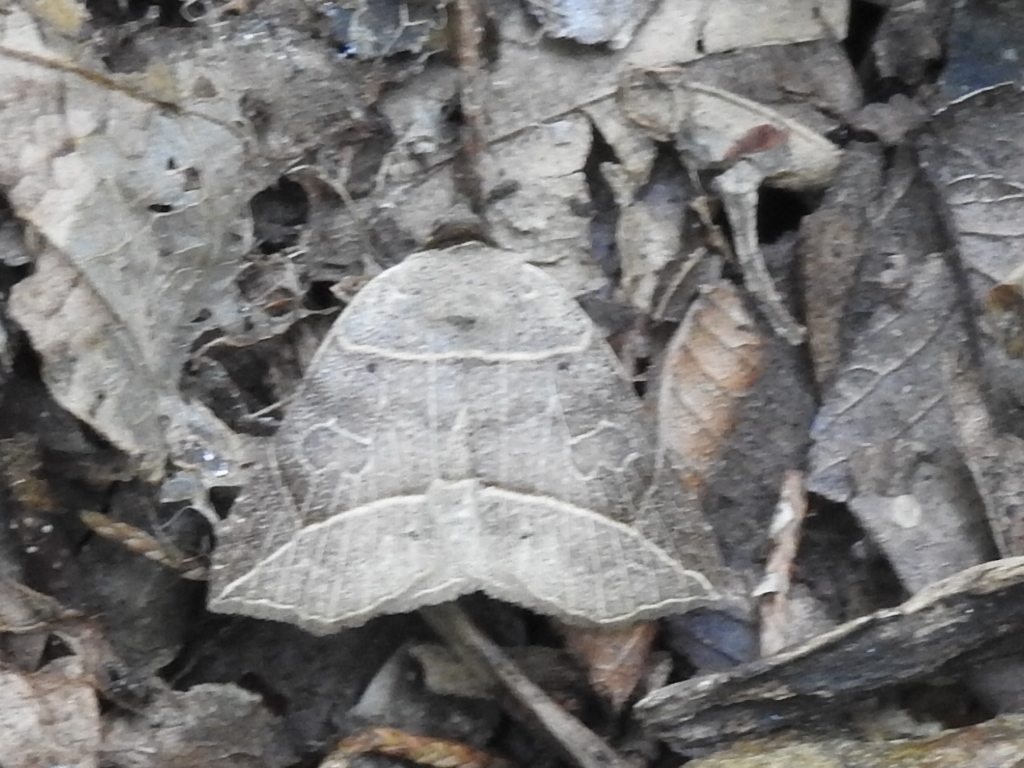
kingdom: Animalia
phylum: Arthropoda
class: Insecta
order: Lepidoptera
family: Erebidae
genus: Isogona
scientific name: Isogona tenuis
